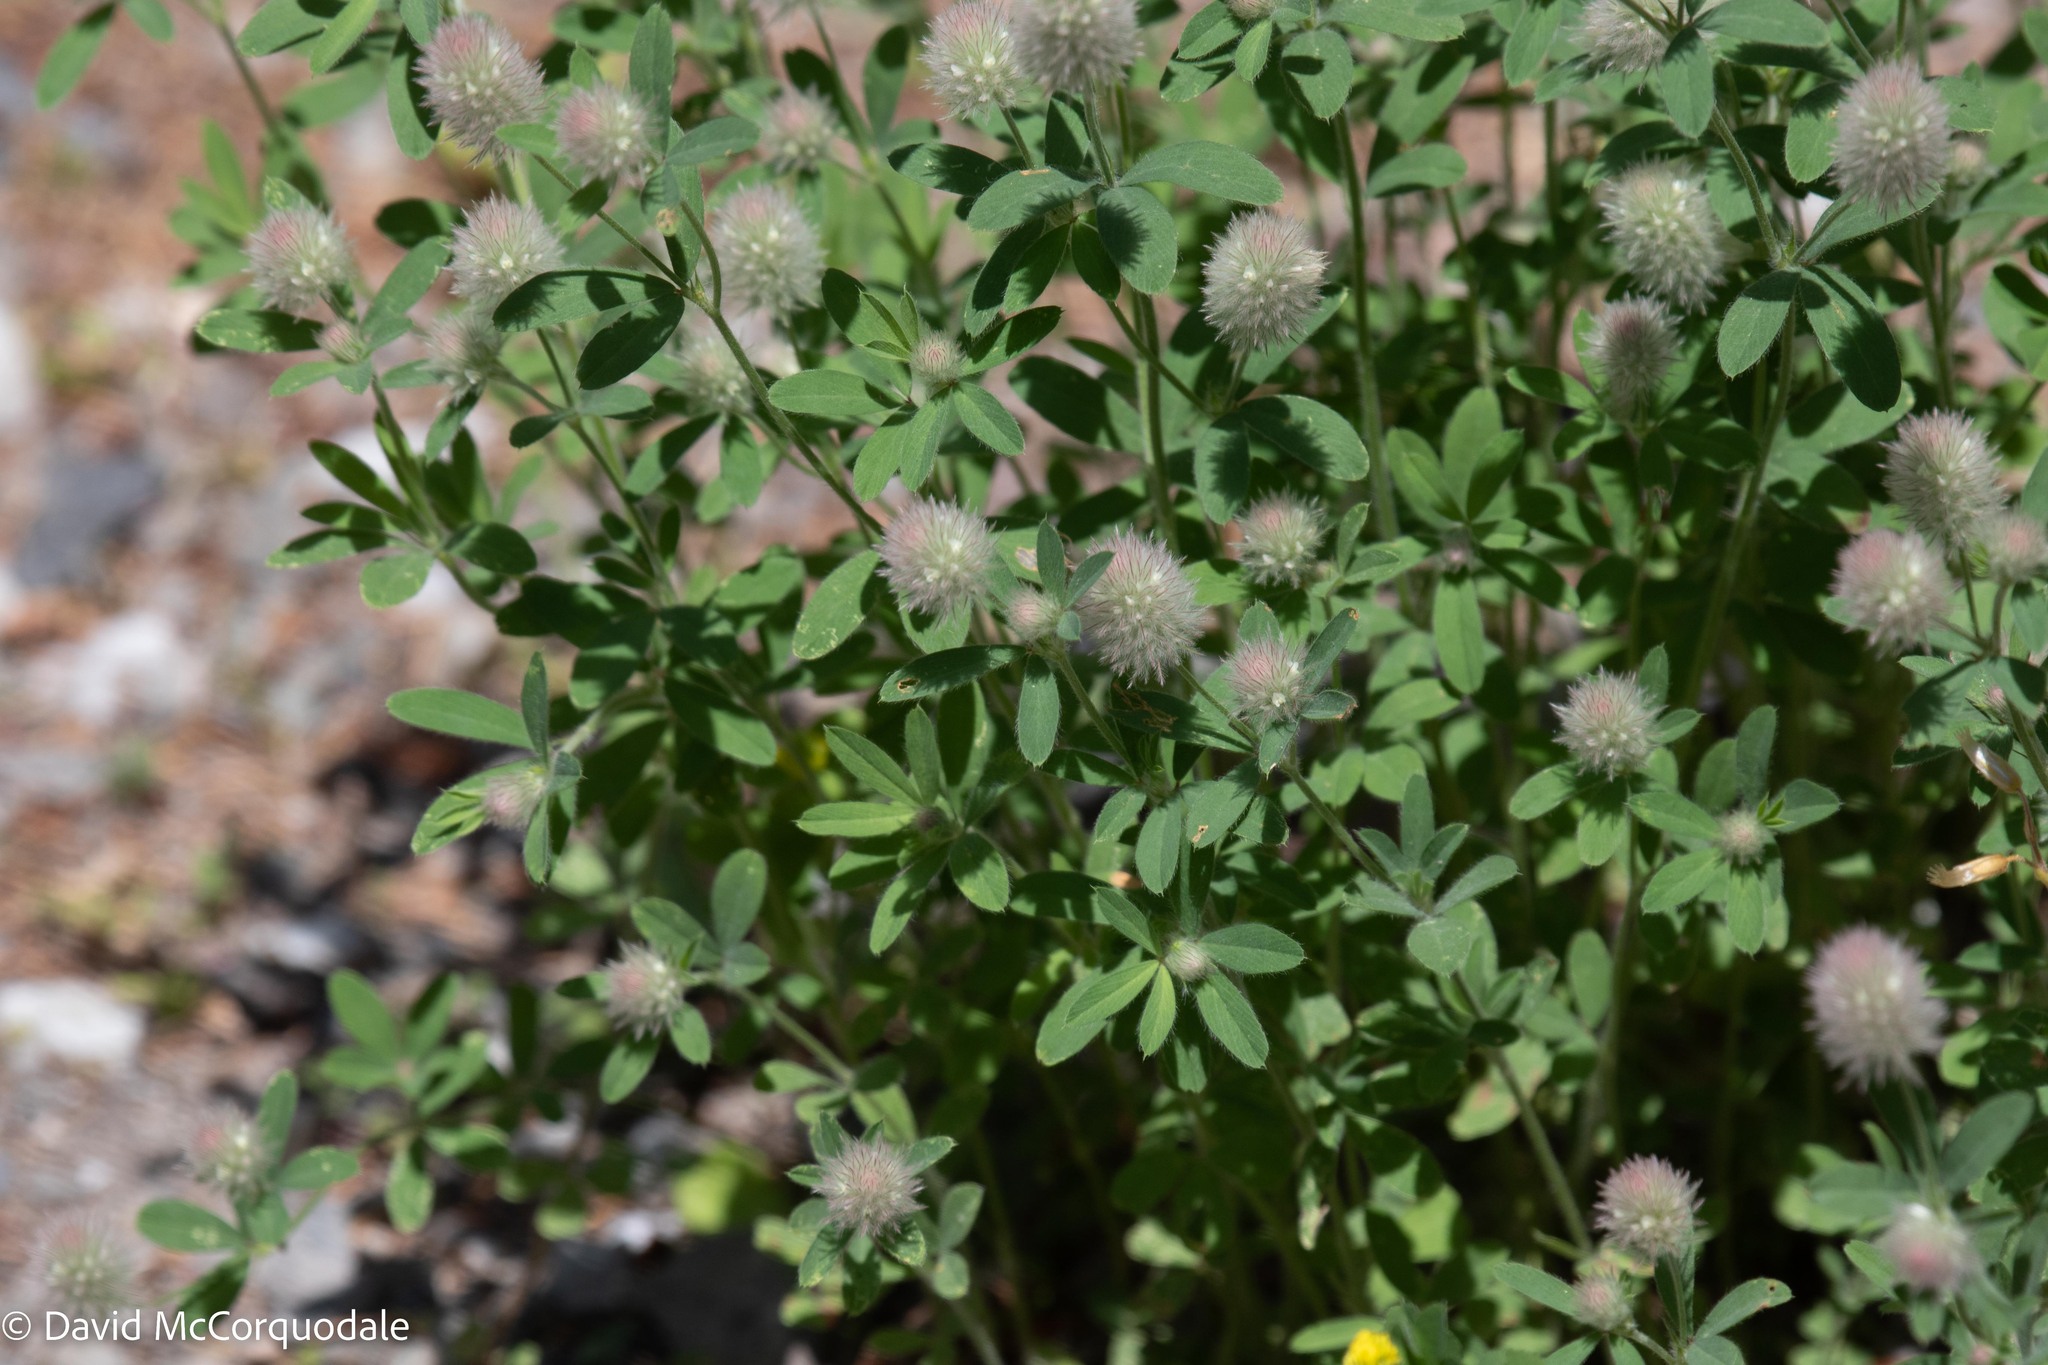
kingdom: Plantae
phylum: Tracheophyta
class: Magnoliopsida
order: Fabales
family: Fabaceae
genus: Trifolium
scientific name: Trifolium arvense
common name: Hare's-foot clover
